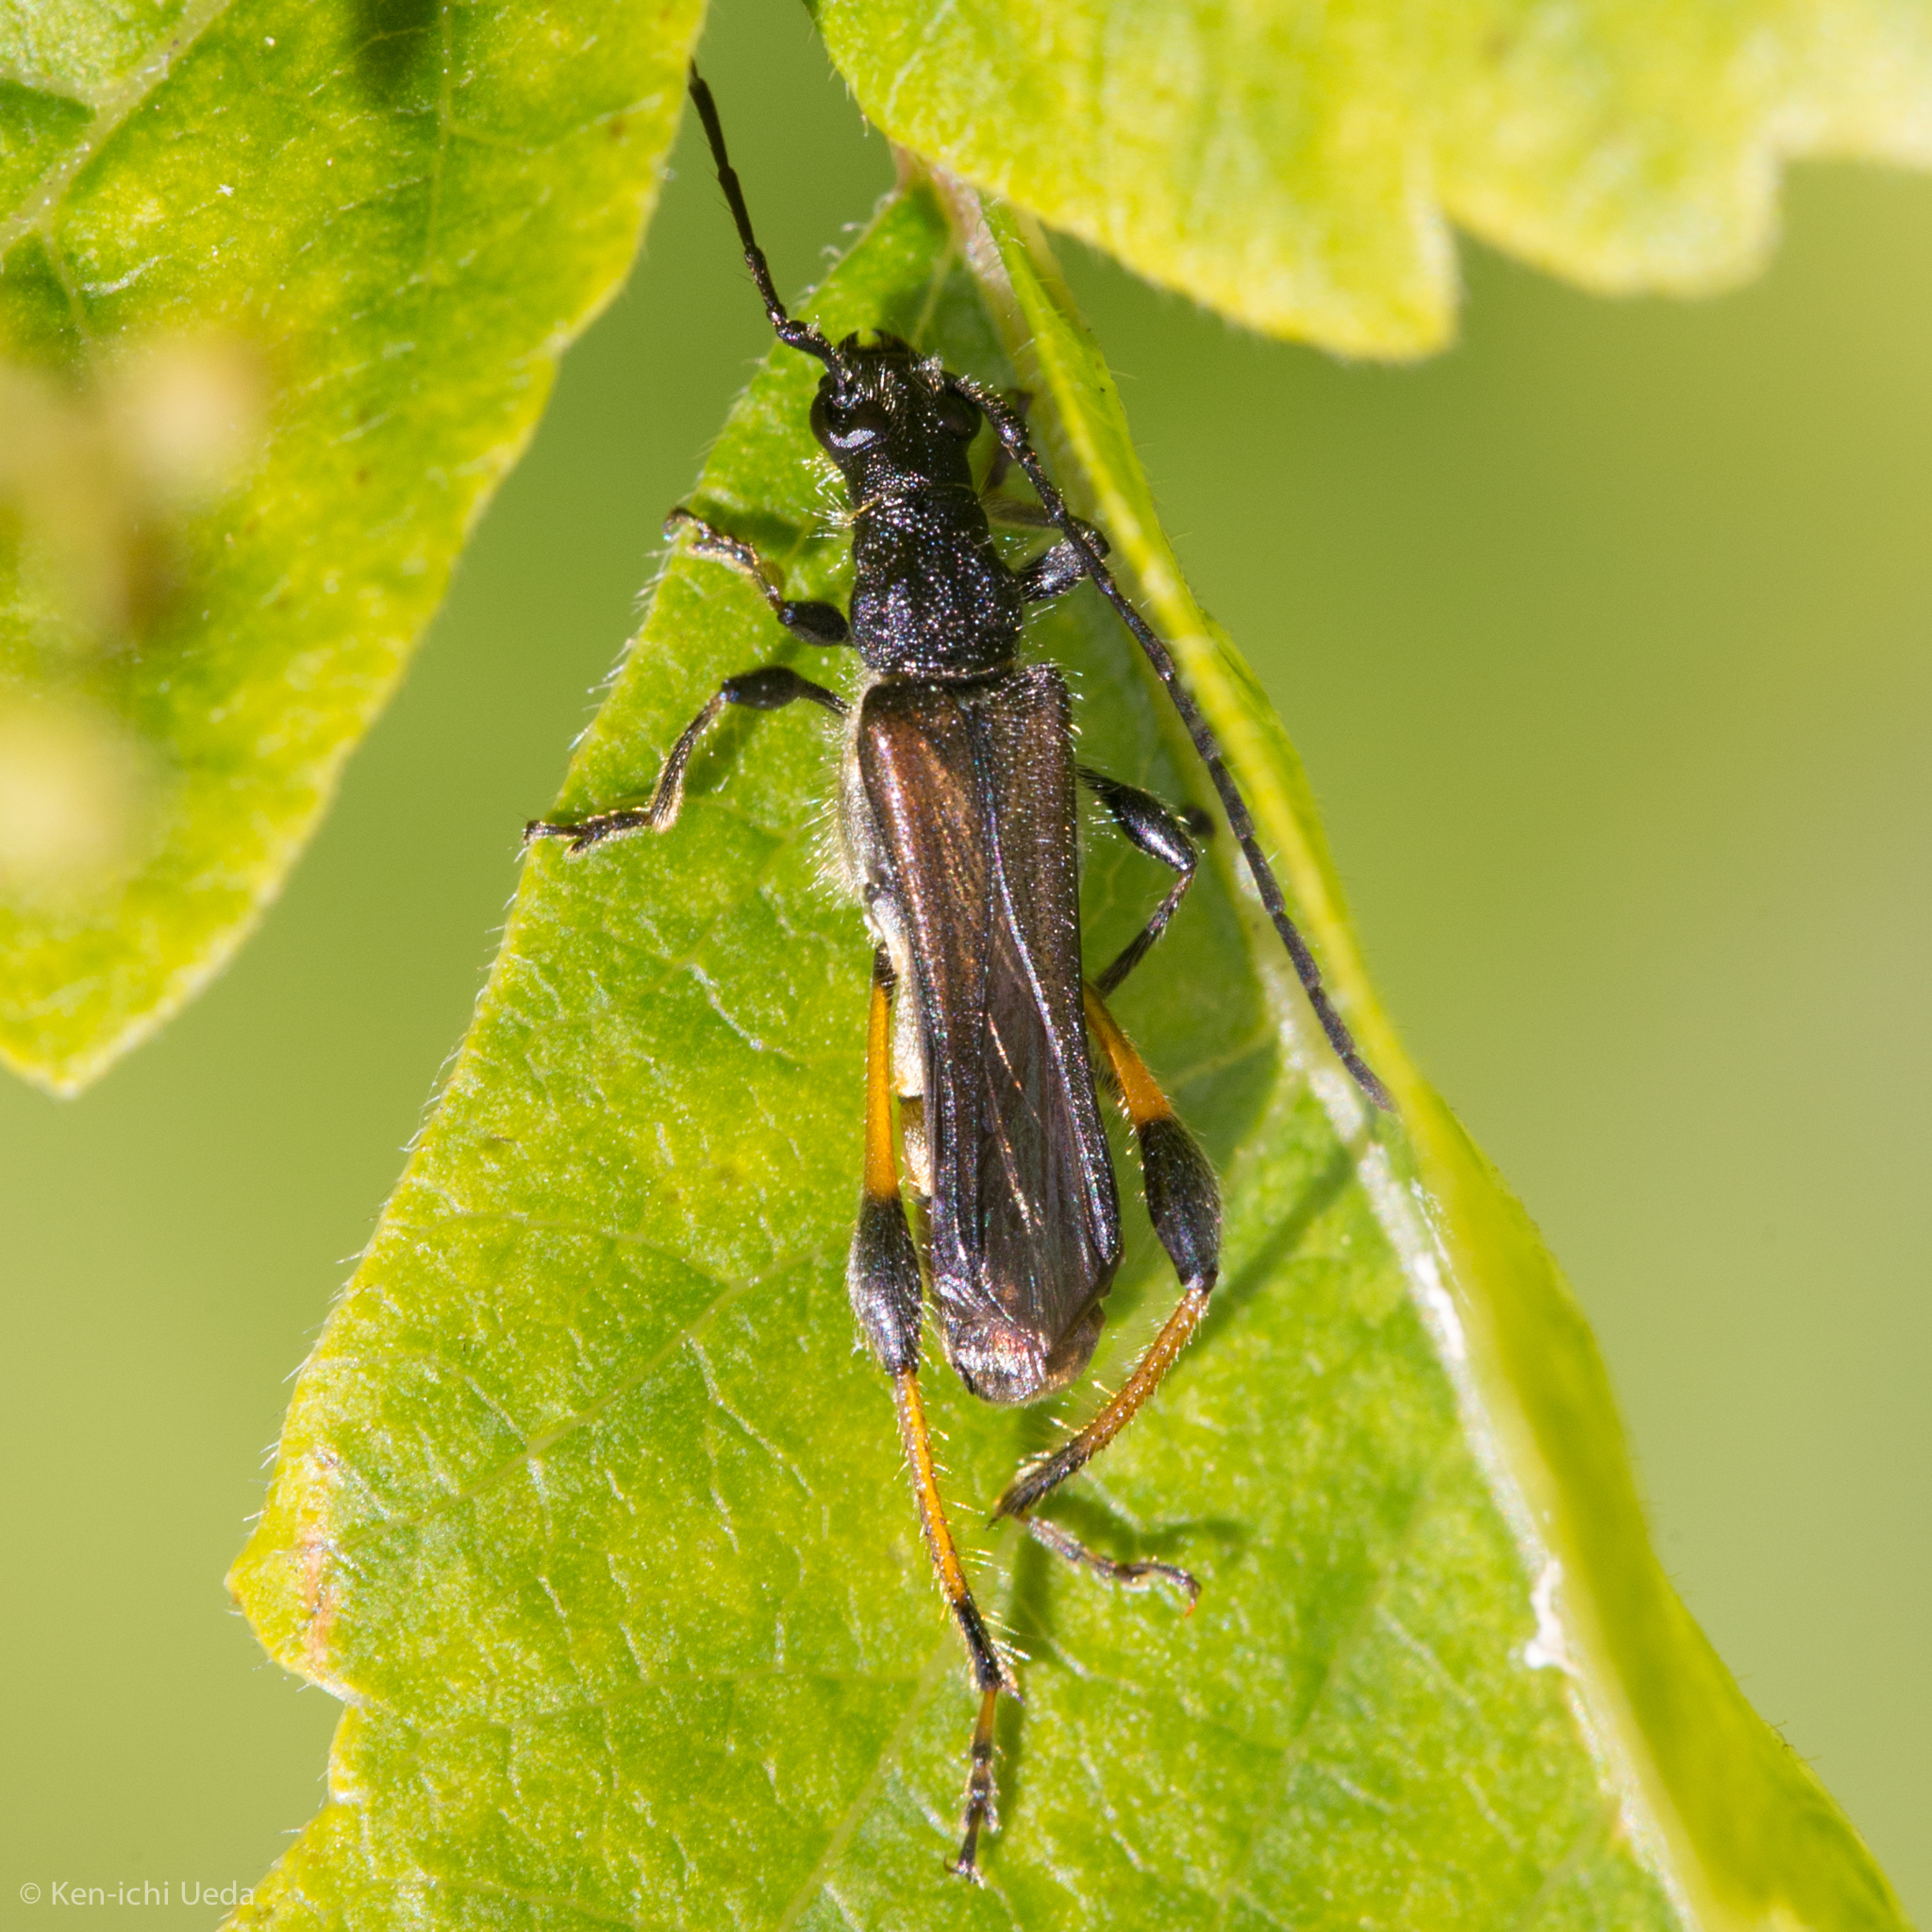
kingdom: Animalia
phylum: Arthropoda
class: Insecta
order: Coleoptera
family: Cerambycidae
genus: Callimoxys
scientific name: Callimoxys fuscipennis
